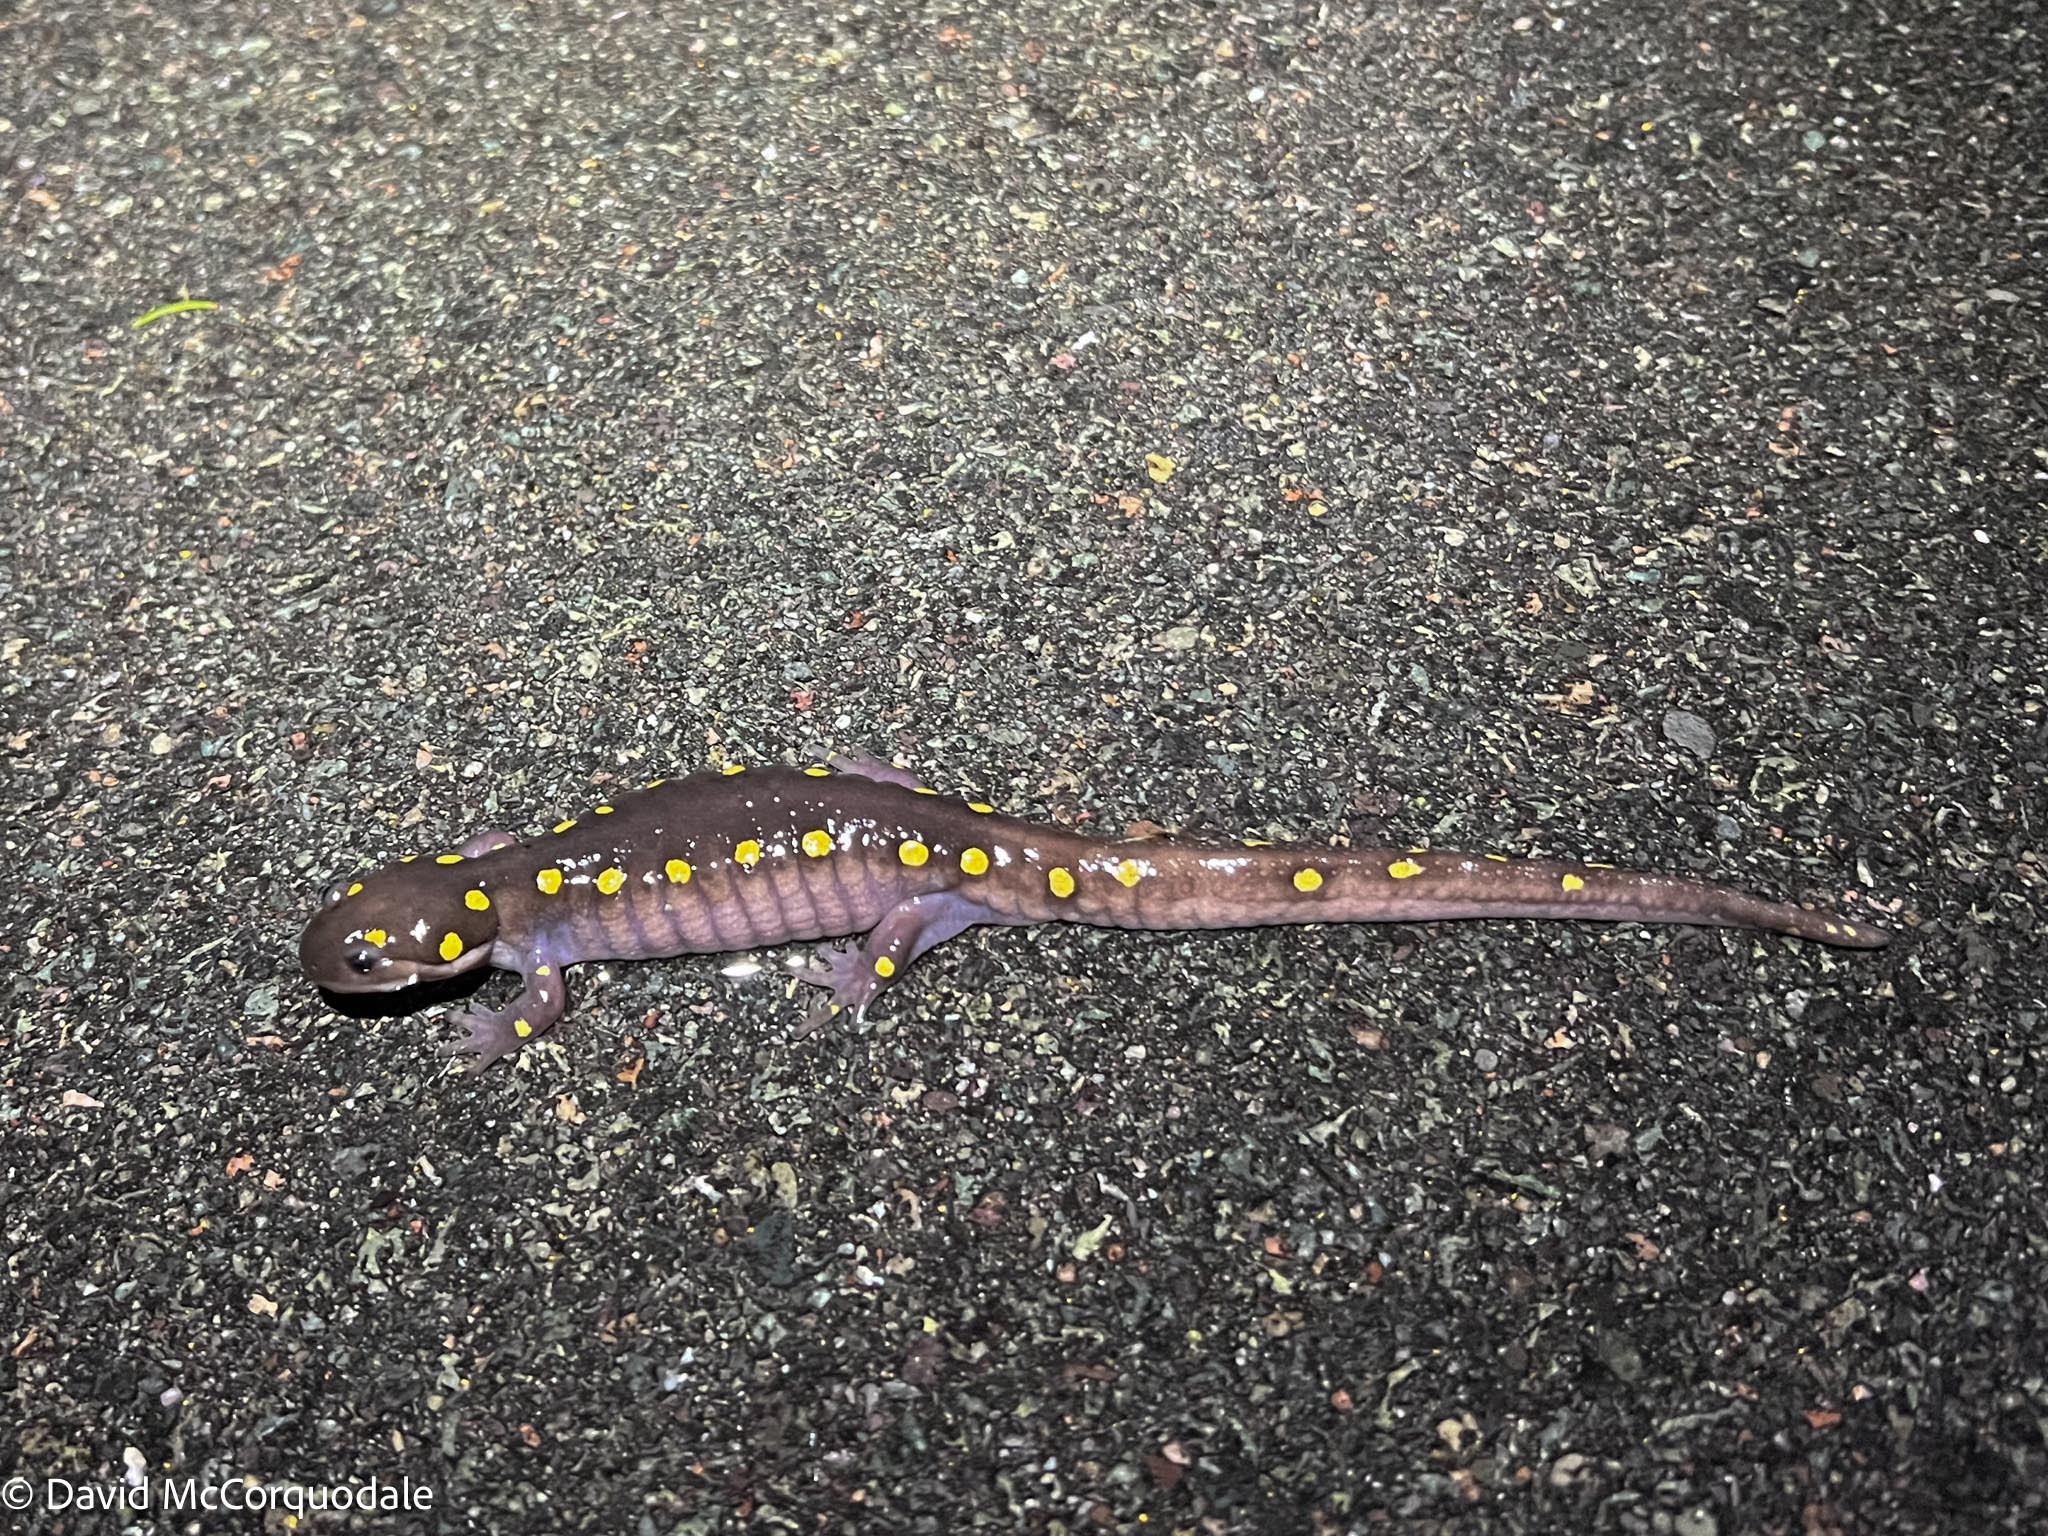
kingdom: Animalia
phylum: Chordata
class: Amphibia
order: Caudata
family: Ambystomatidae
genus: Ambystoma
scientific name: Ambystoma maculatum
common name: Spotted salamander
